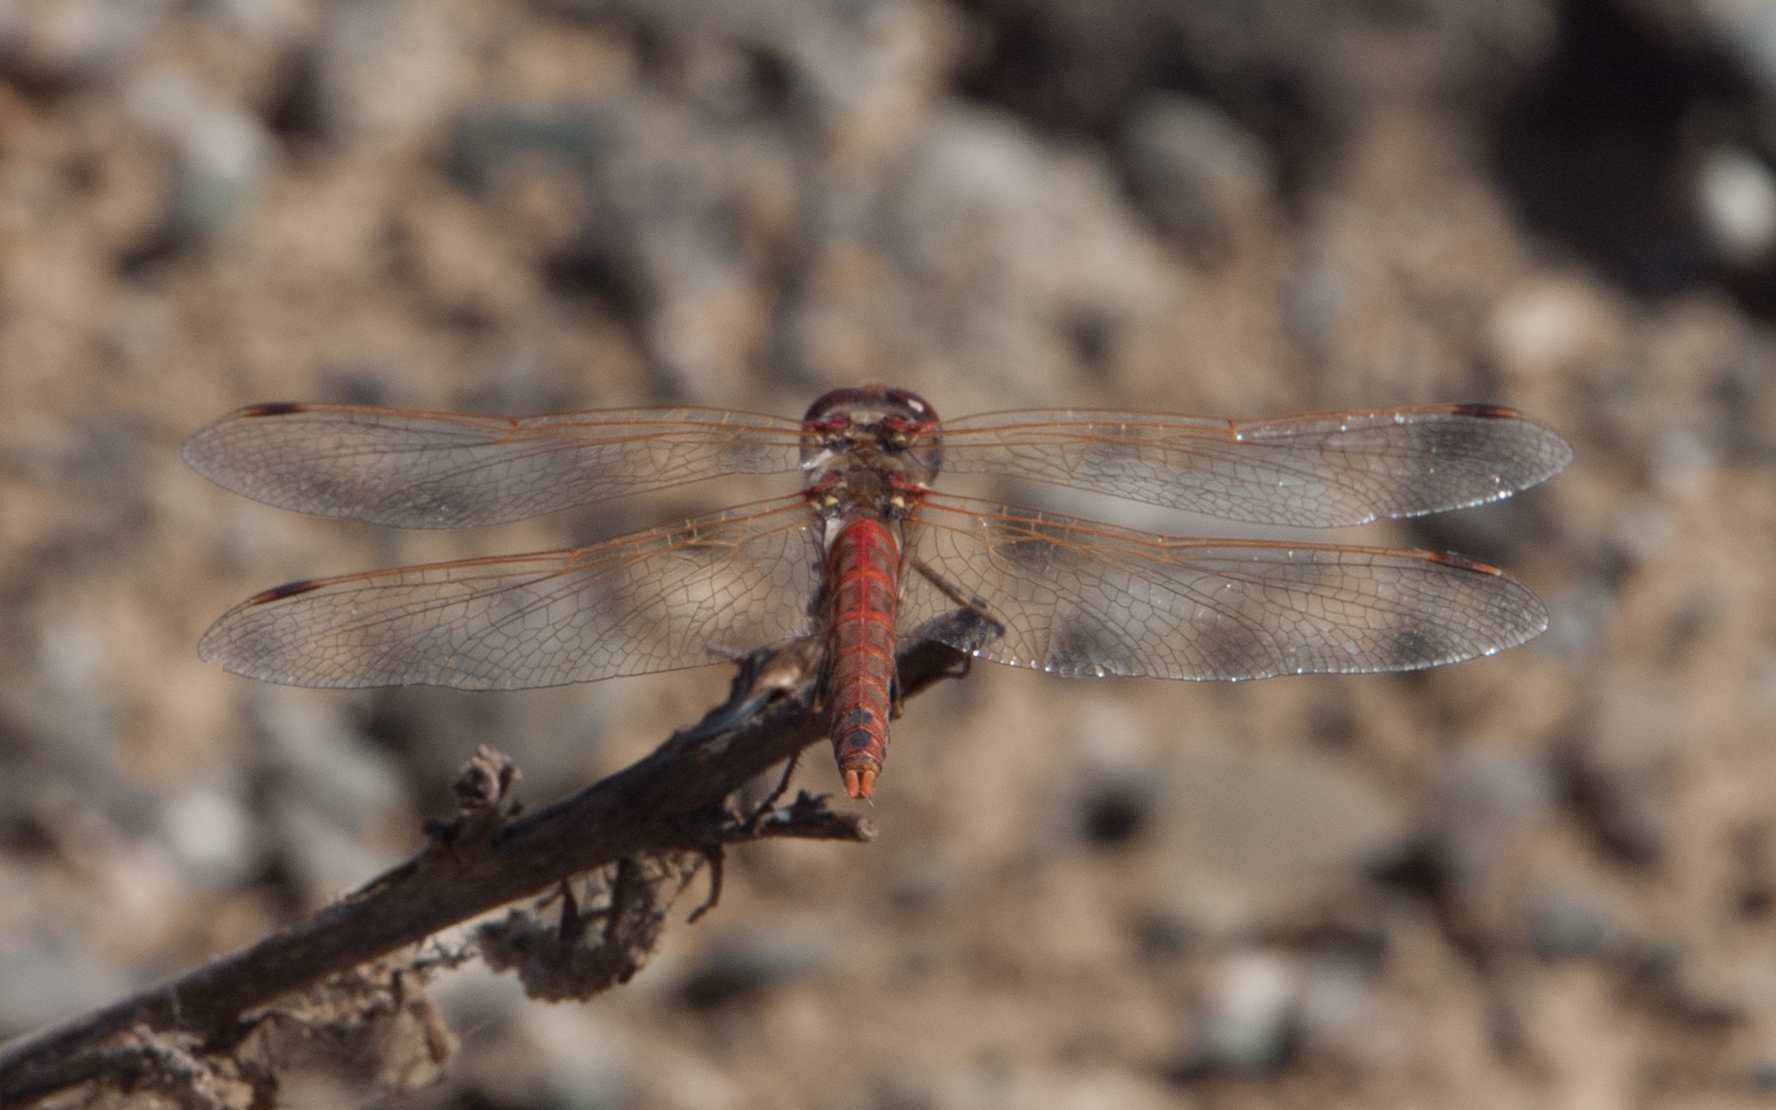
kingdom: Animalia
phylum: Arthropoda
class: Insecta
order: Odonata
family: Libellulidae
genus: Sympetrum
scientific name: Sympetrum corruptum
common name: Variegated meadowhawk
